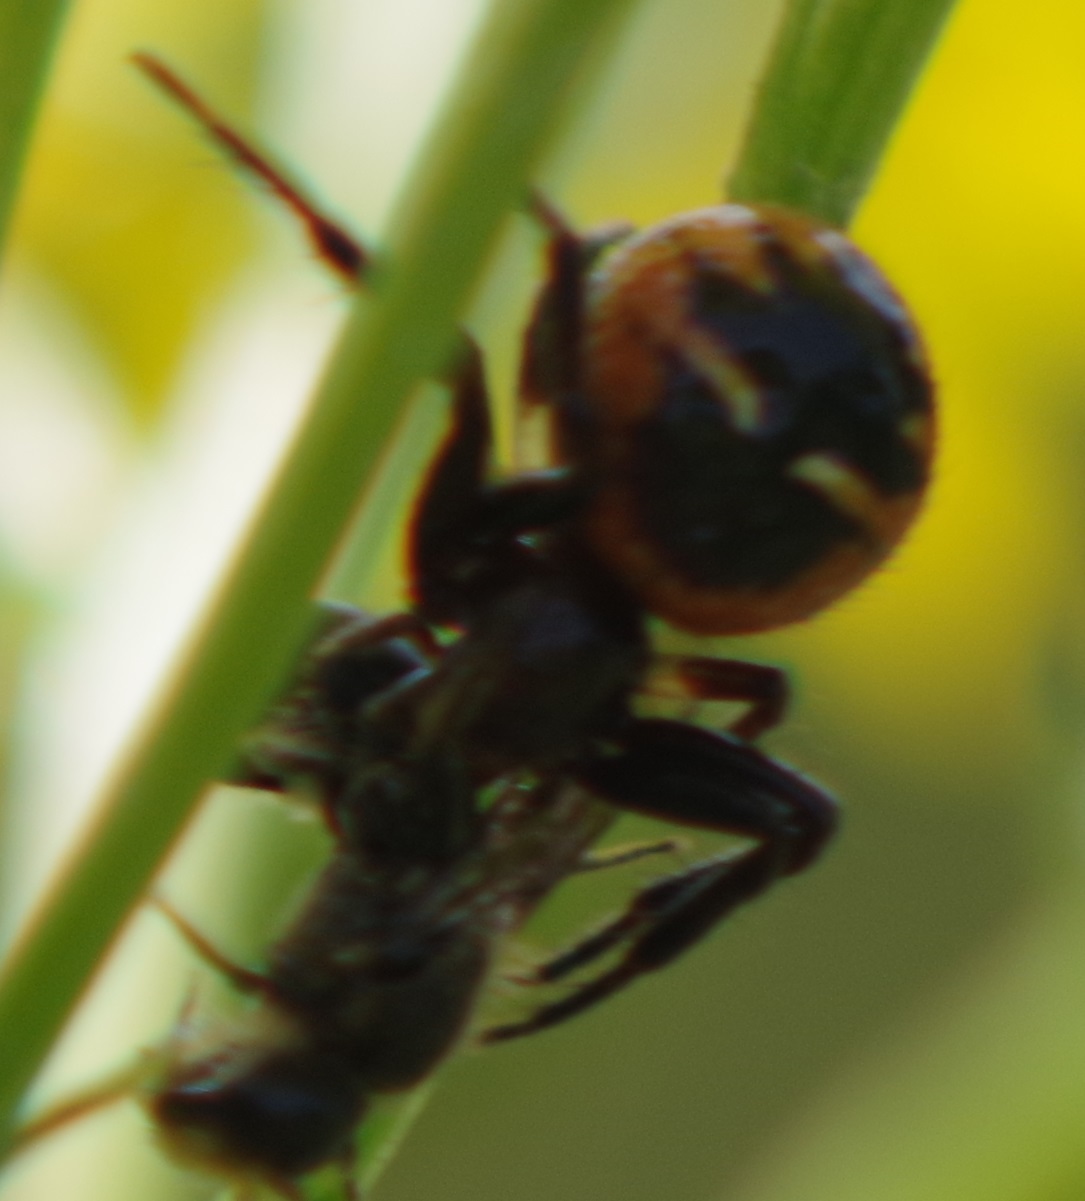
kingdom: Animalia
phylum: Arthropoda
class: Arachnida
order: Araneae
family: Thomisidae
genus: Synema
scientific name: Synema globosum
